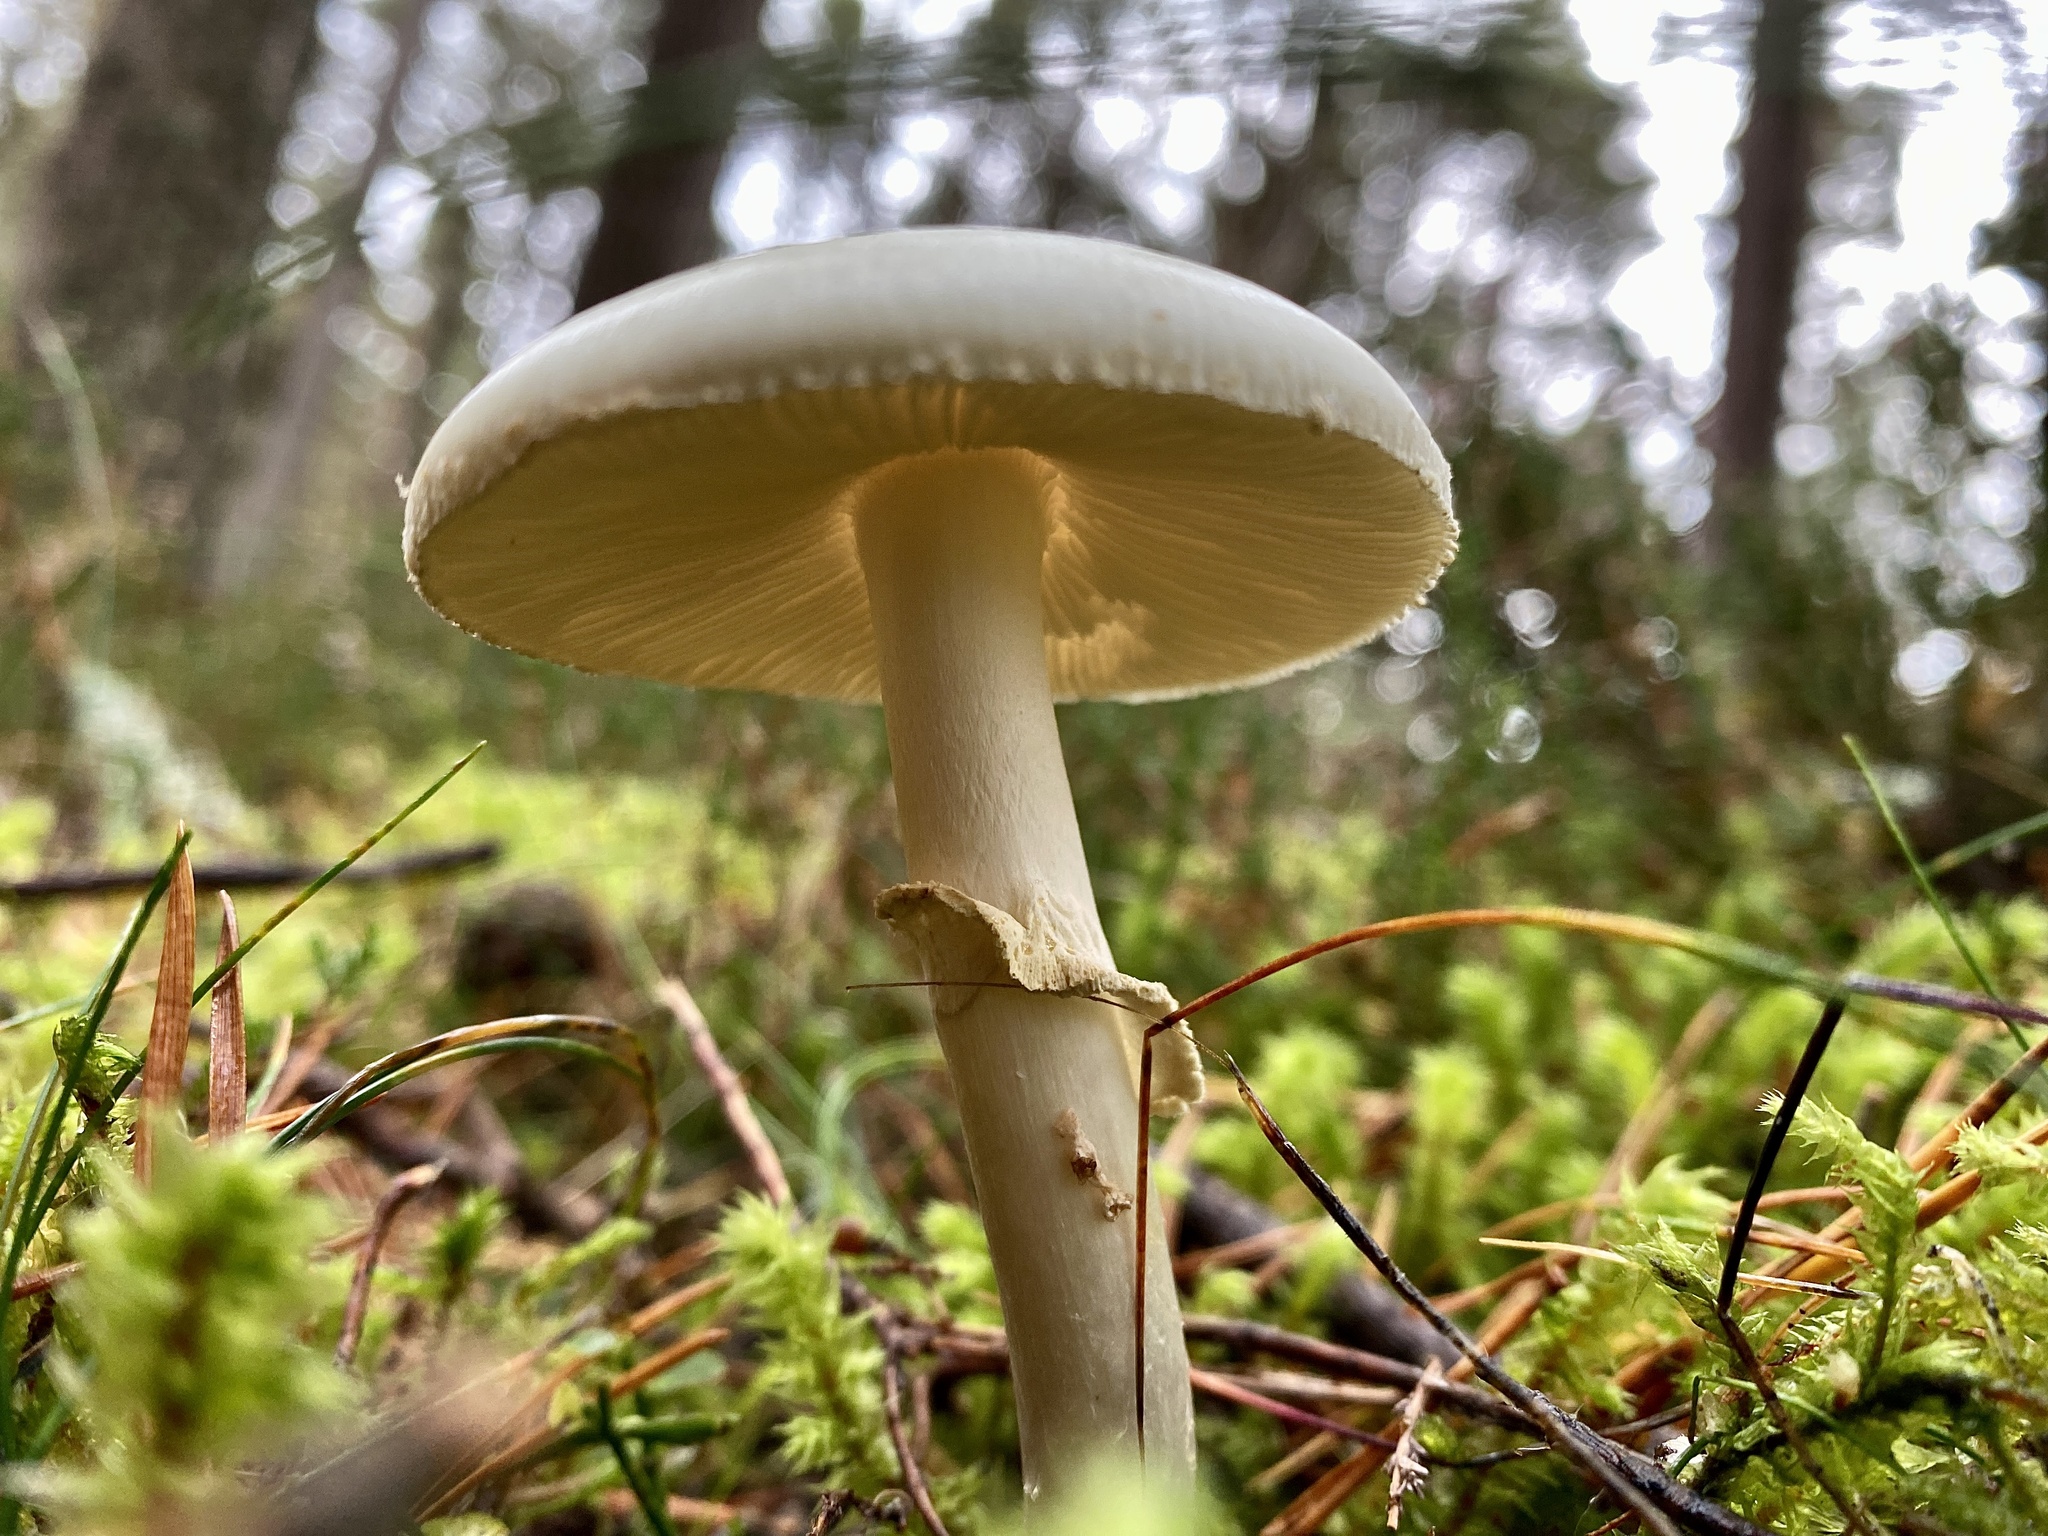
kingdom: Fungi
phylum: Basidiomycota
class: Agaricomycetes
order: Agaricales
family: Amanitaceae
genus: Amanita
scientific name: Amanita citrina
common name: False death-cap
